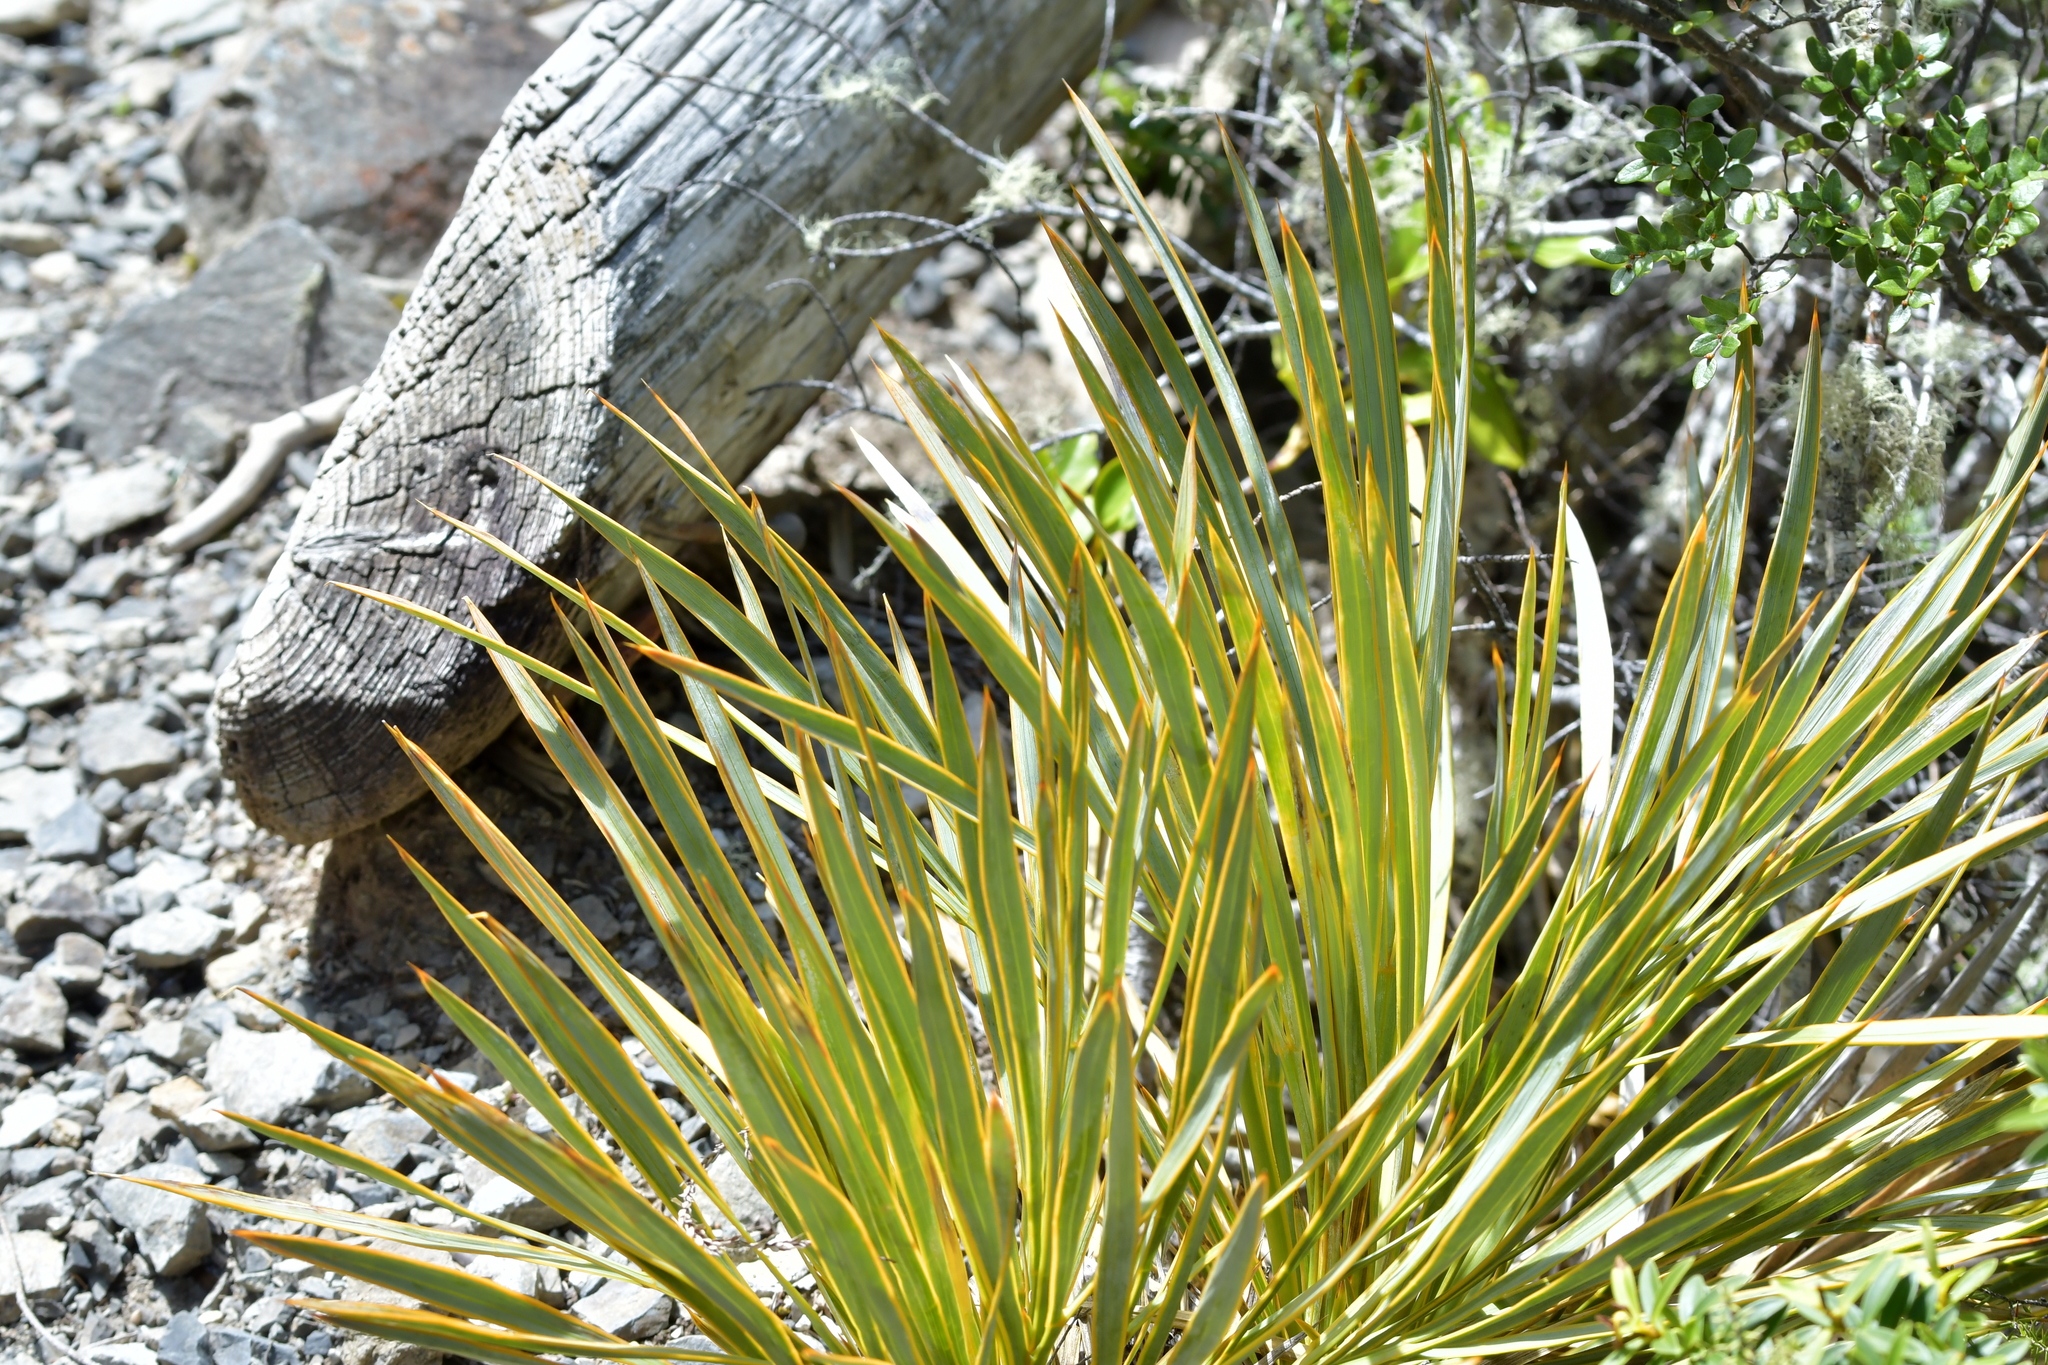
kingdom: Plantae
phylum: Tracheophyta
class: Magnoliopsida
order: Apiales
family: Apiaceae
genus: Aciphylla
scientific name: Aciphylla aurea
